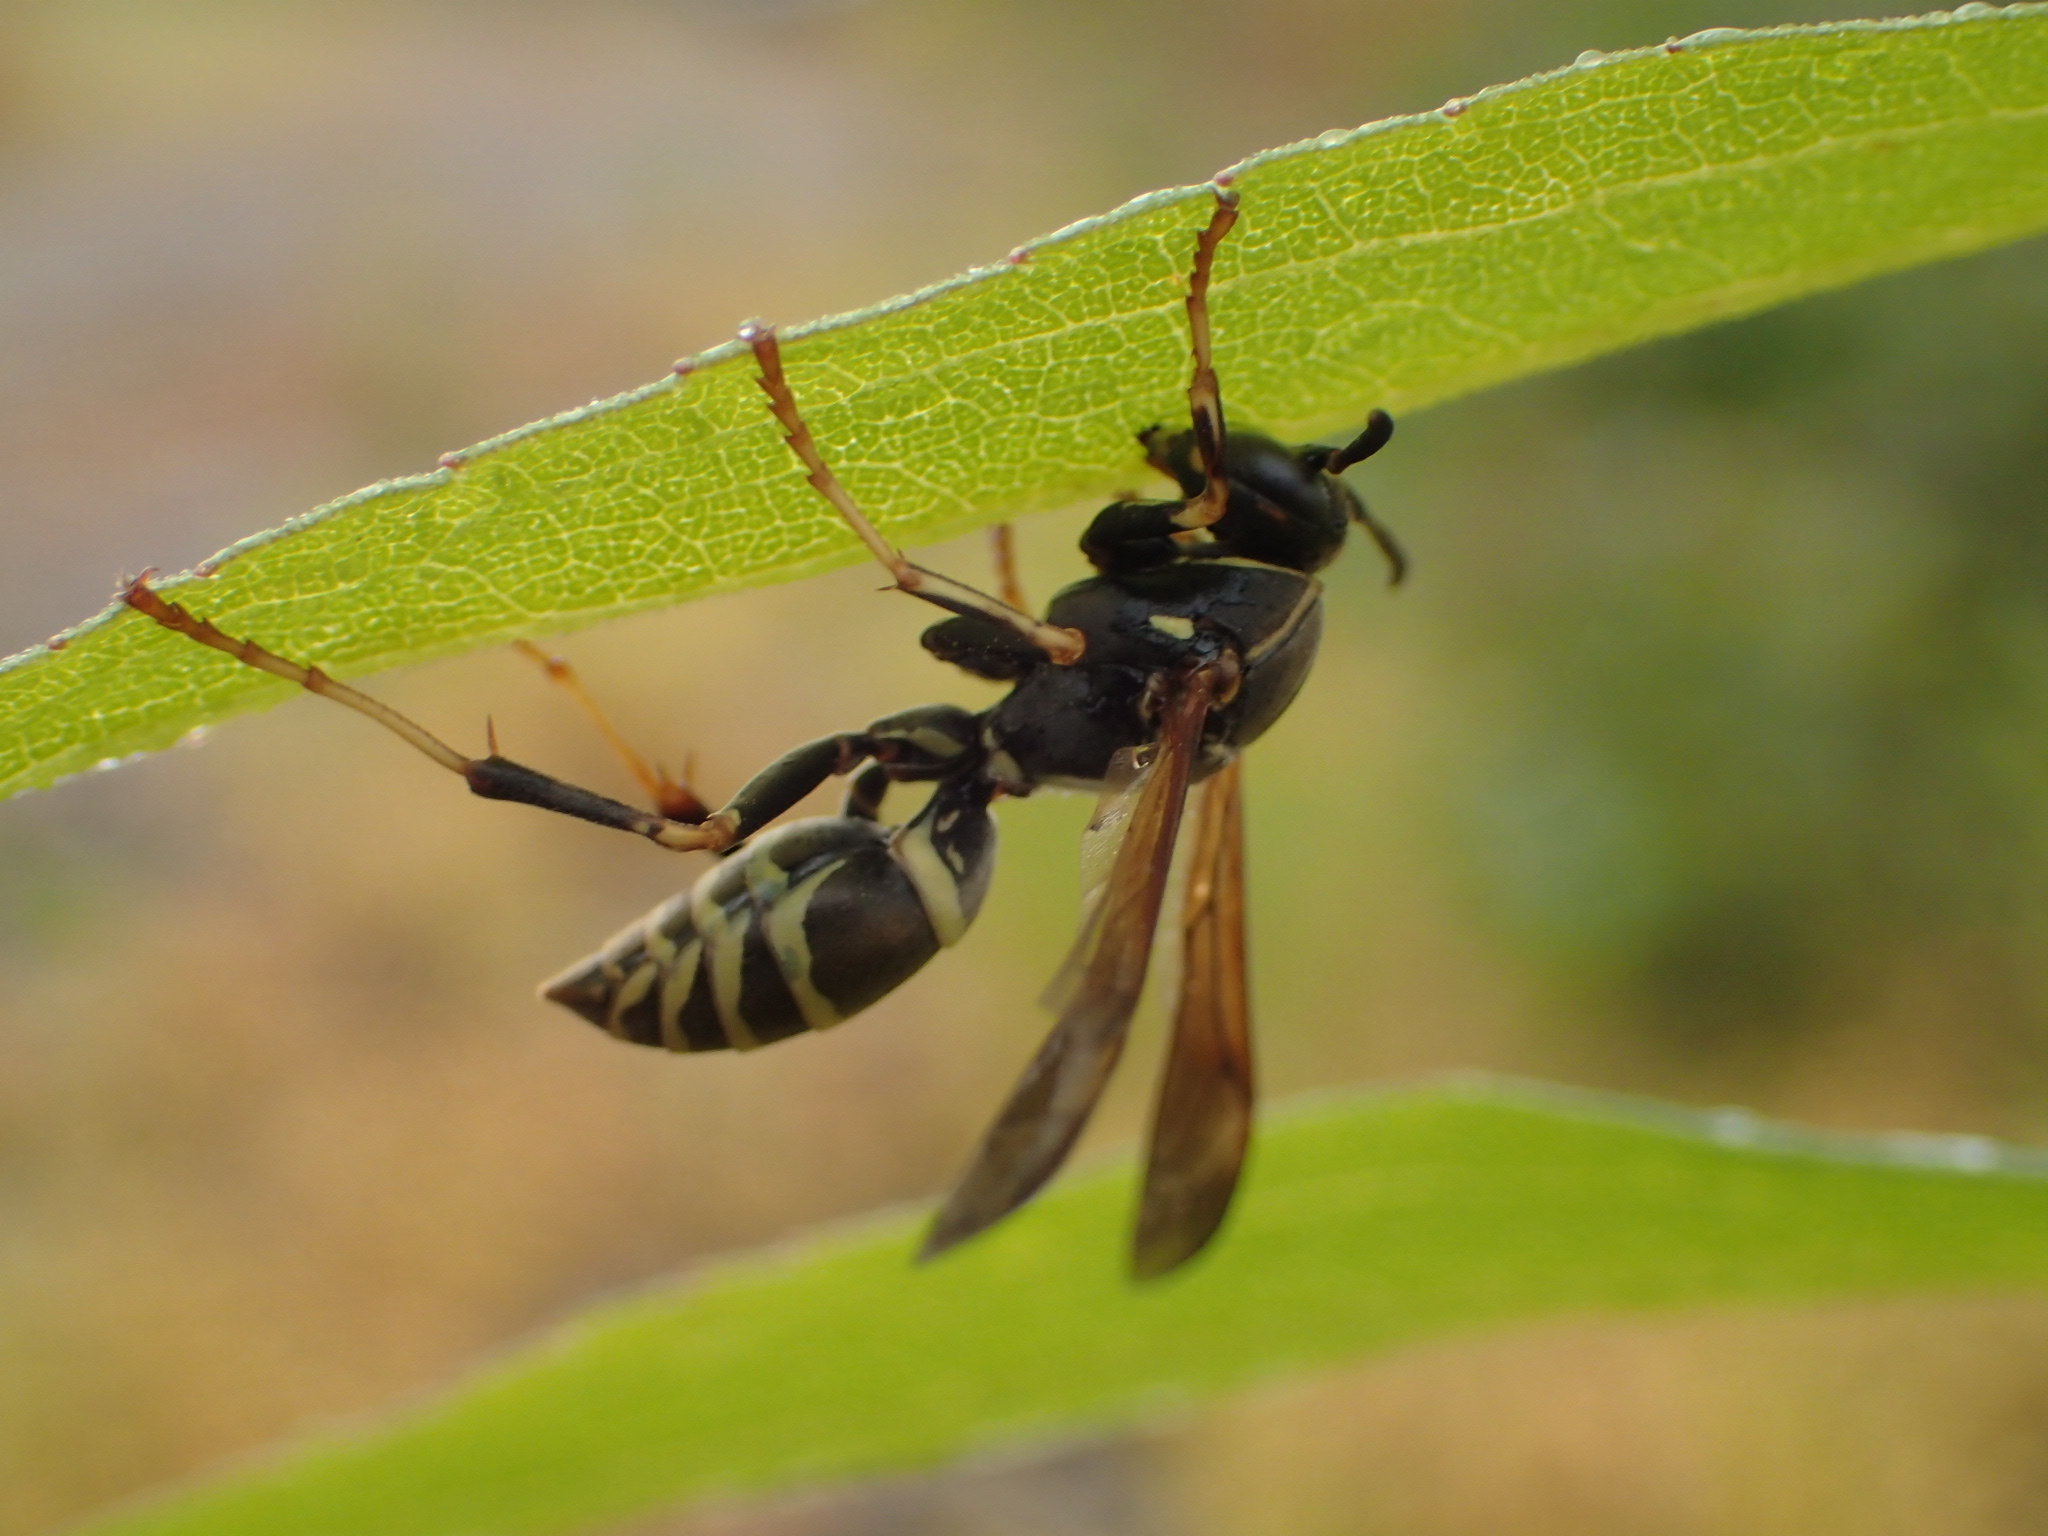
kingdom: Animalia
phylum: Arthropoda
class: Insecta
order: Hymenoptera
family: Eumenidae
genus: Polistes
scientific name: Polistes fuscatus
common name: Dark paper wasp
